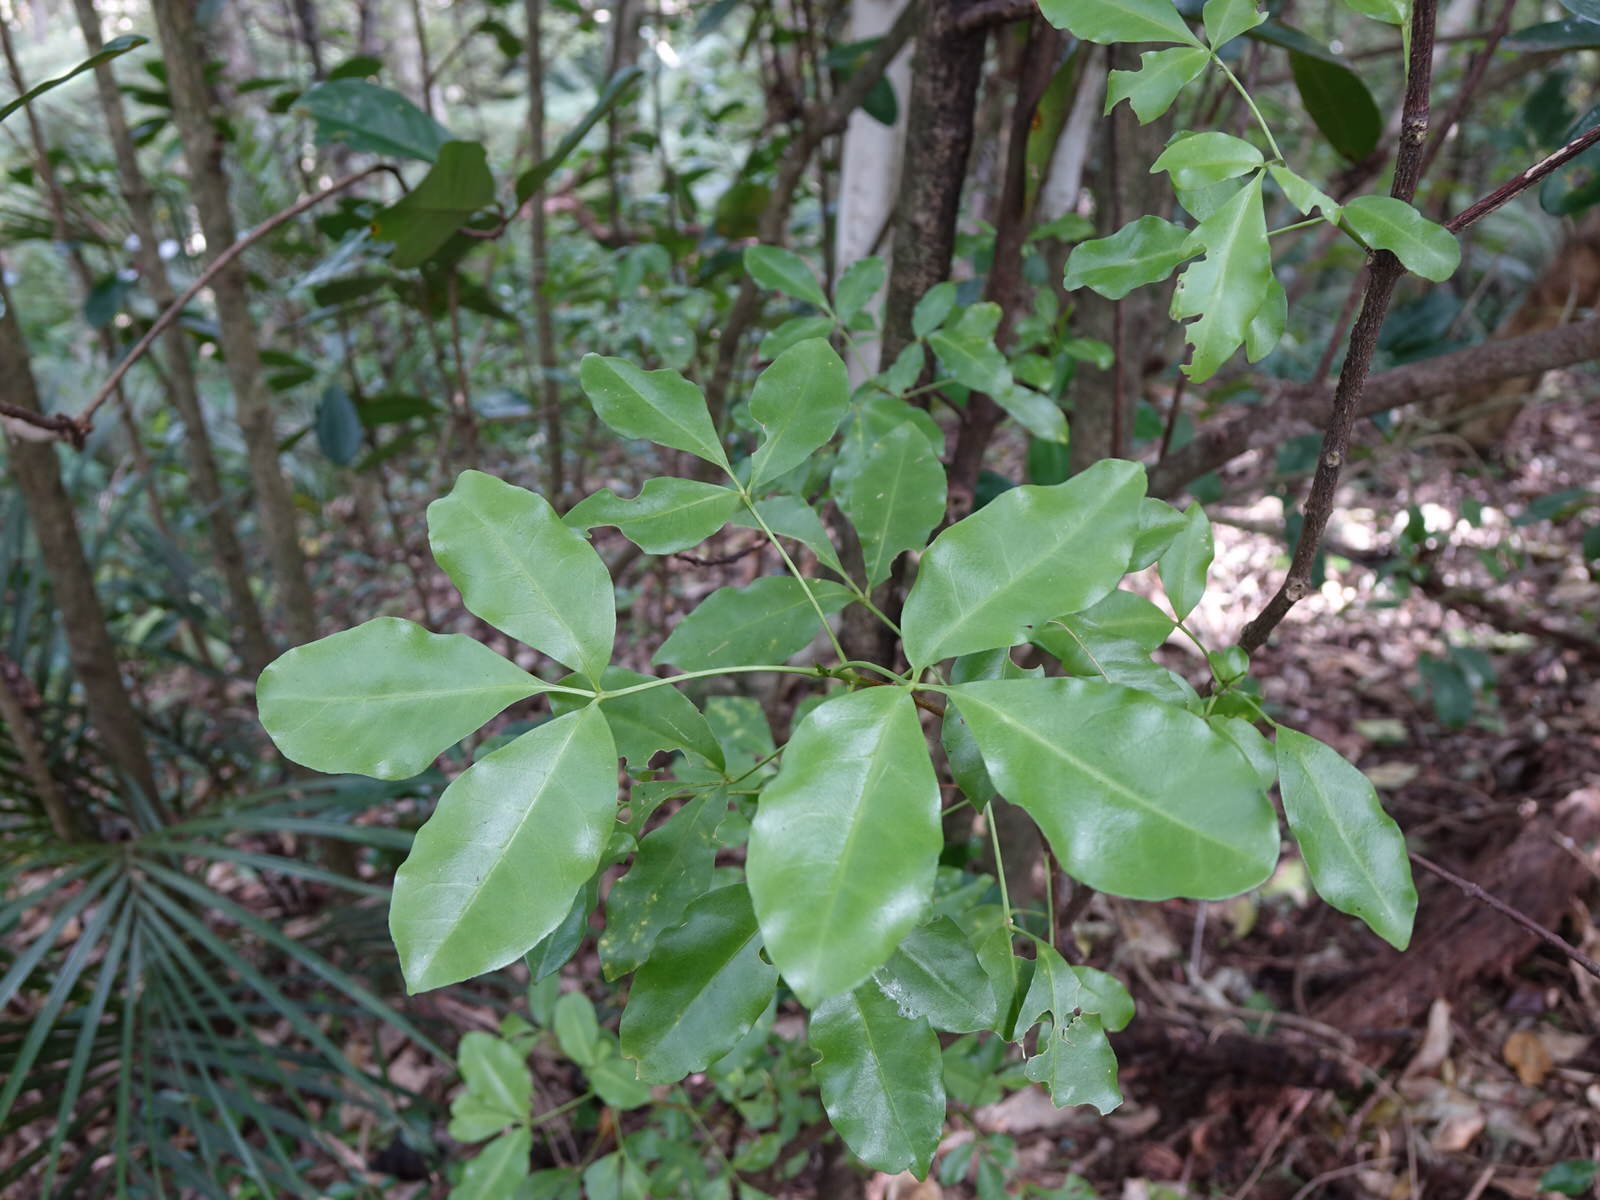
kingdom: Plantae
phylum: Tracheophyta
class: Magnoliopsida
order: Sapindales
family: Rutaceae
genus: Melicope
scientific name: Melicope ternata
